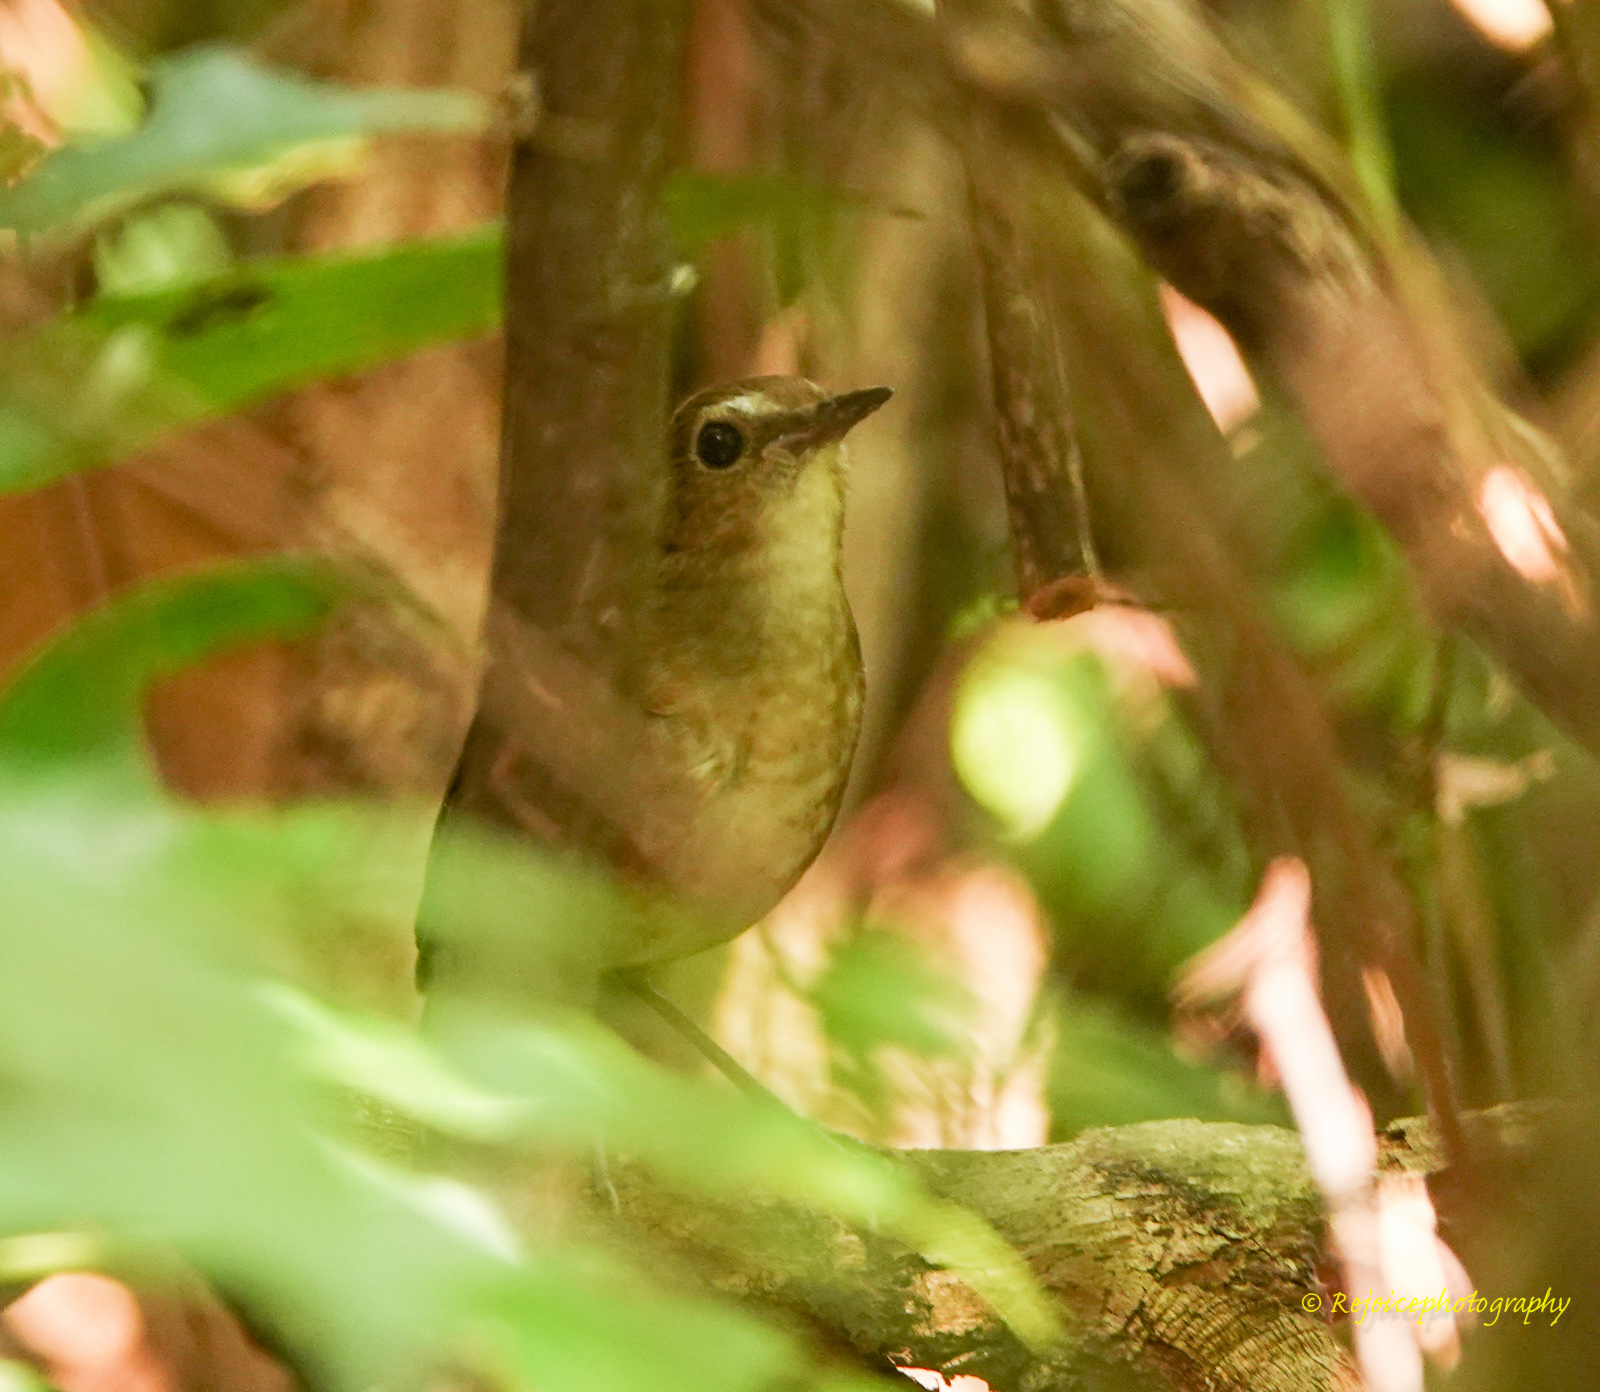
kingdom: Animalia
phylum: Chordata
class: Aves
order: Passeriformes
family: Muscicapidae
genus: Brachypteryx
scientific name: Brachypteryx leucophris
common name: Lesser shortwing
